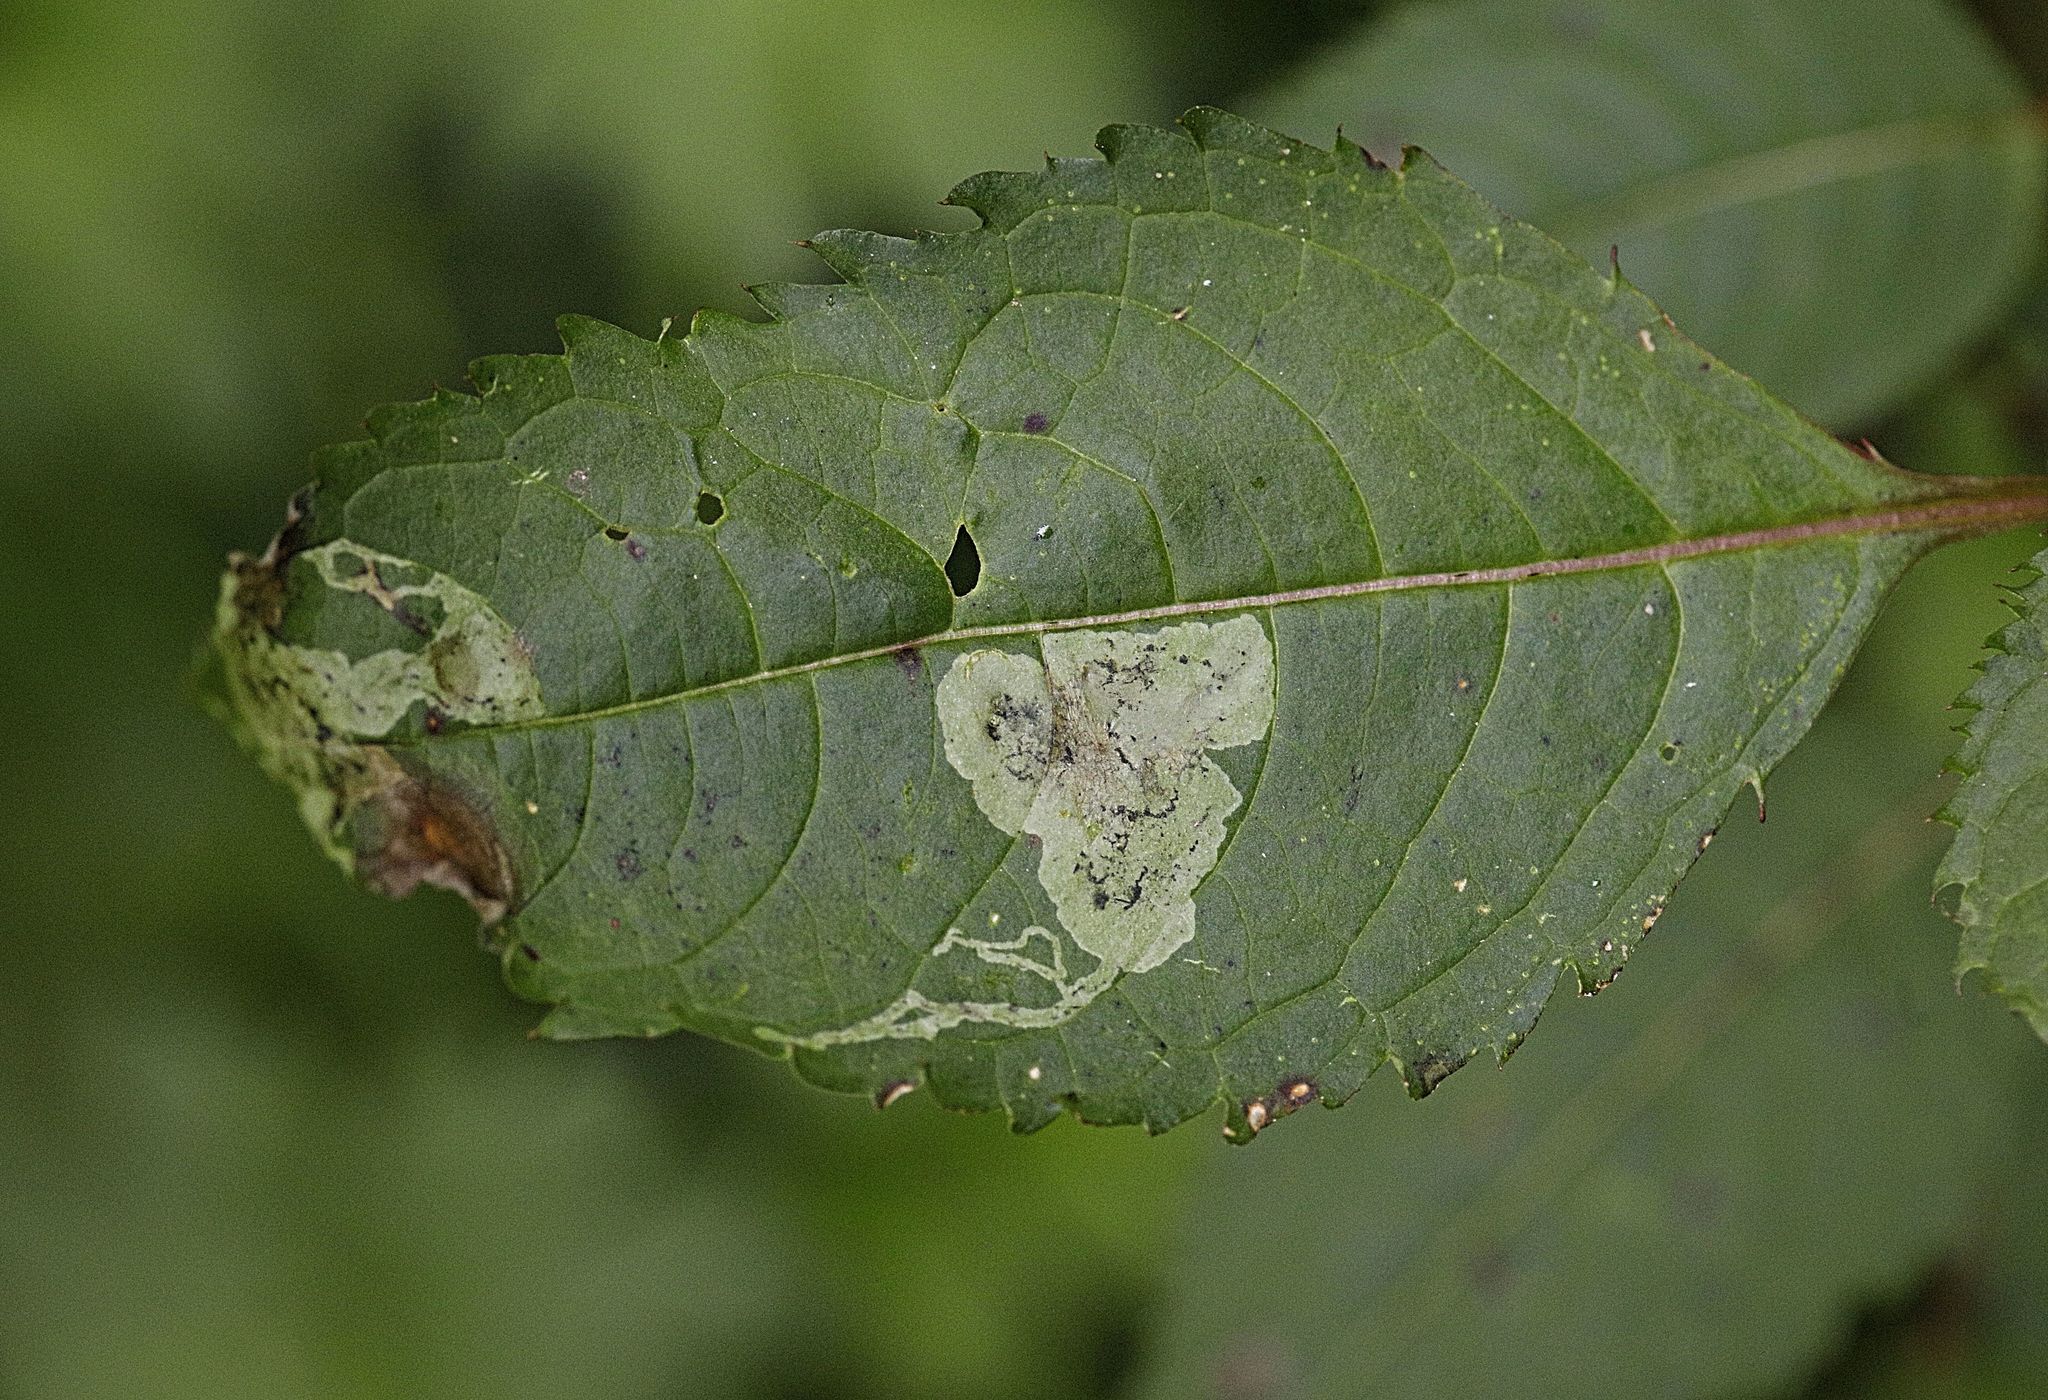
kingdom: Animalia
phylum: Arthropoda
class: Insecta
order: Diptera
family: Agromyzidae
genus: Phytoliriomyza
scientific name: Phytoliriomyza melampyga
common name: Jewelweed leaf-miner fly
